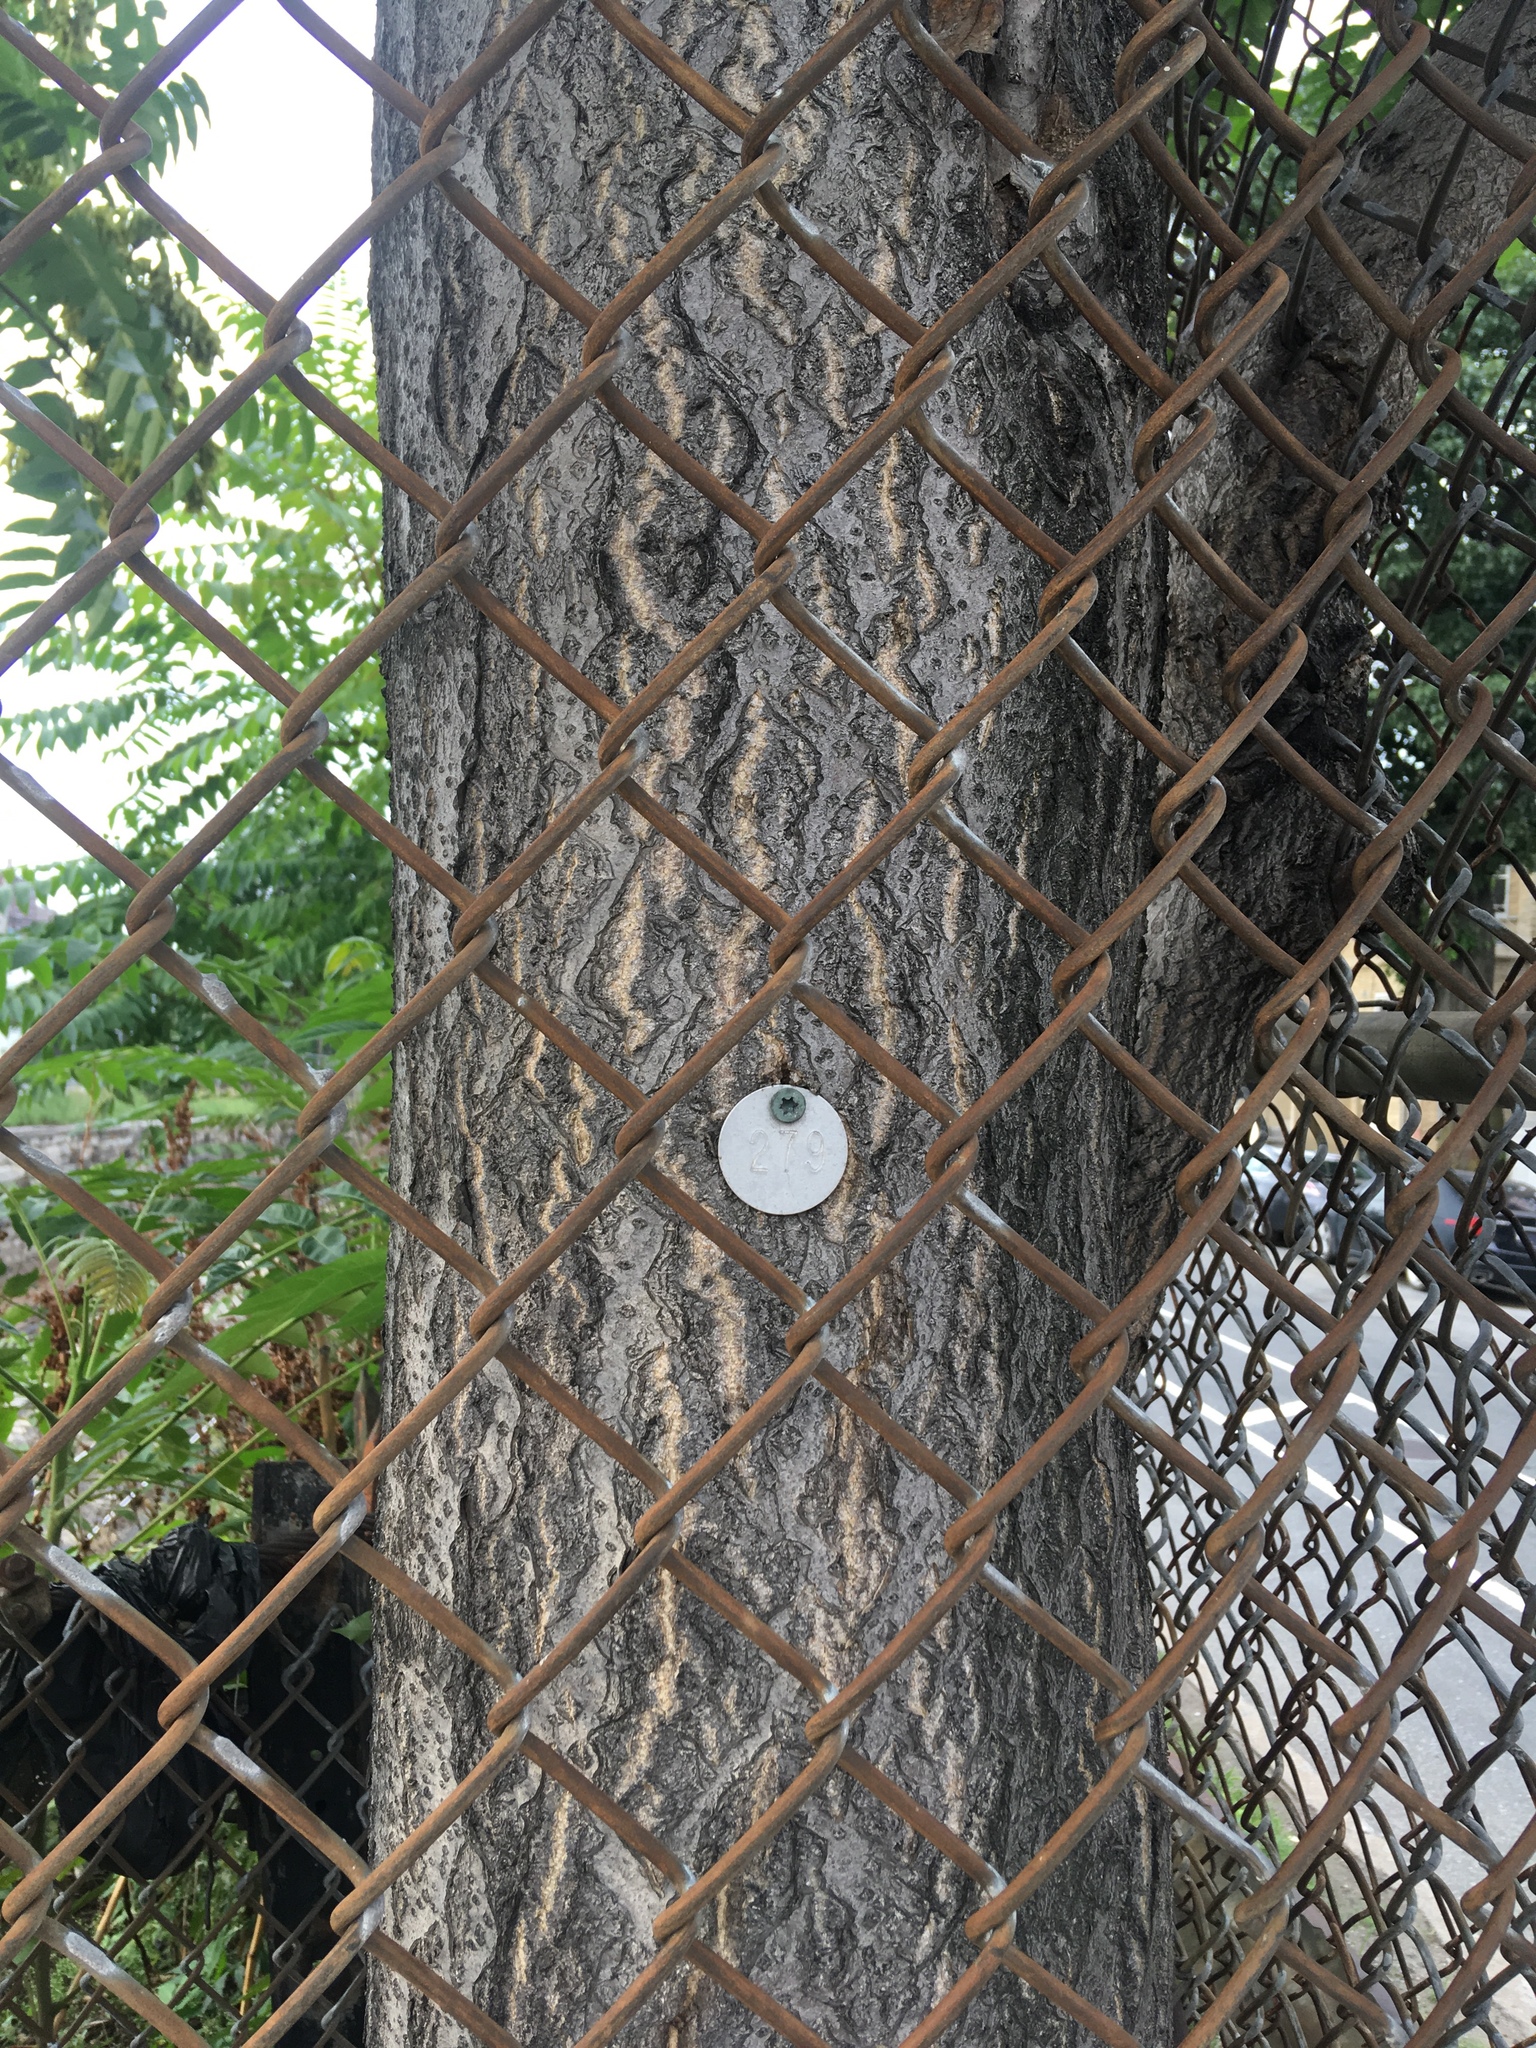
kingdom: Plantae
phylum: Tracheophyta
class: Magnoliopsida
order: Sapindales
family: Simaroubaceae
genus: Ailanthus
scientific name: Ailanthus altissima
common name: Tree-of-heaven
